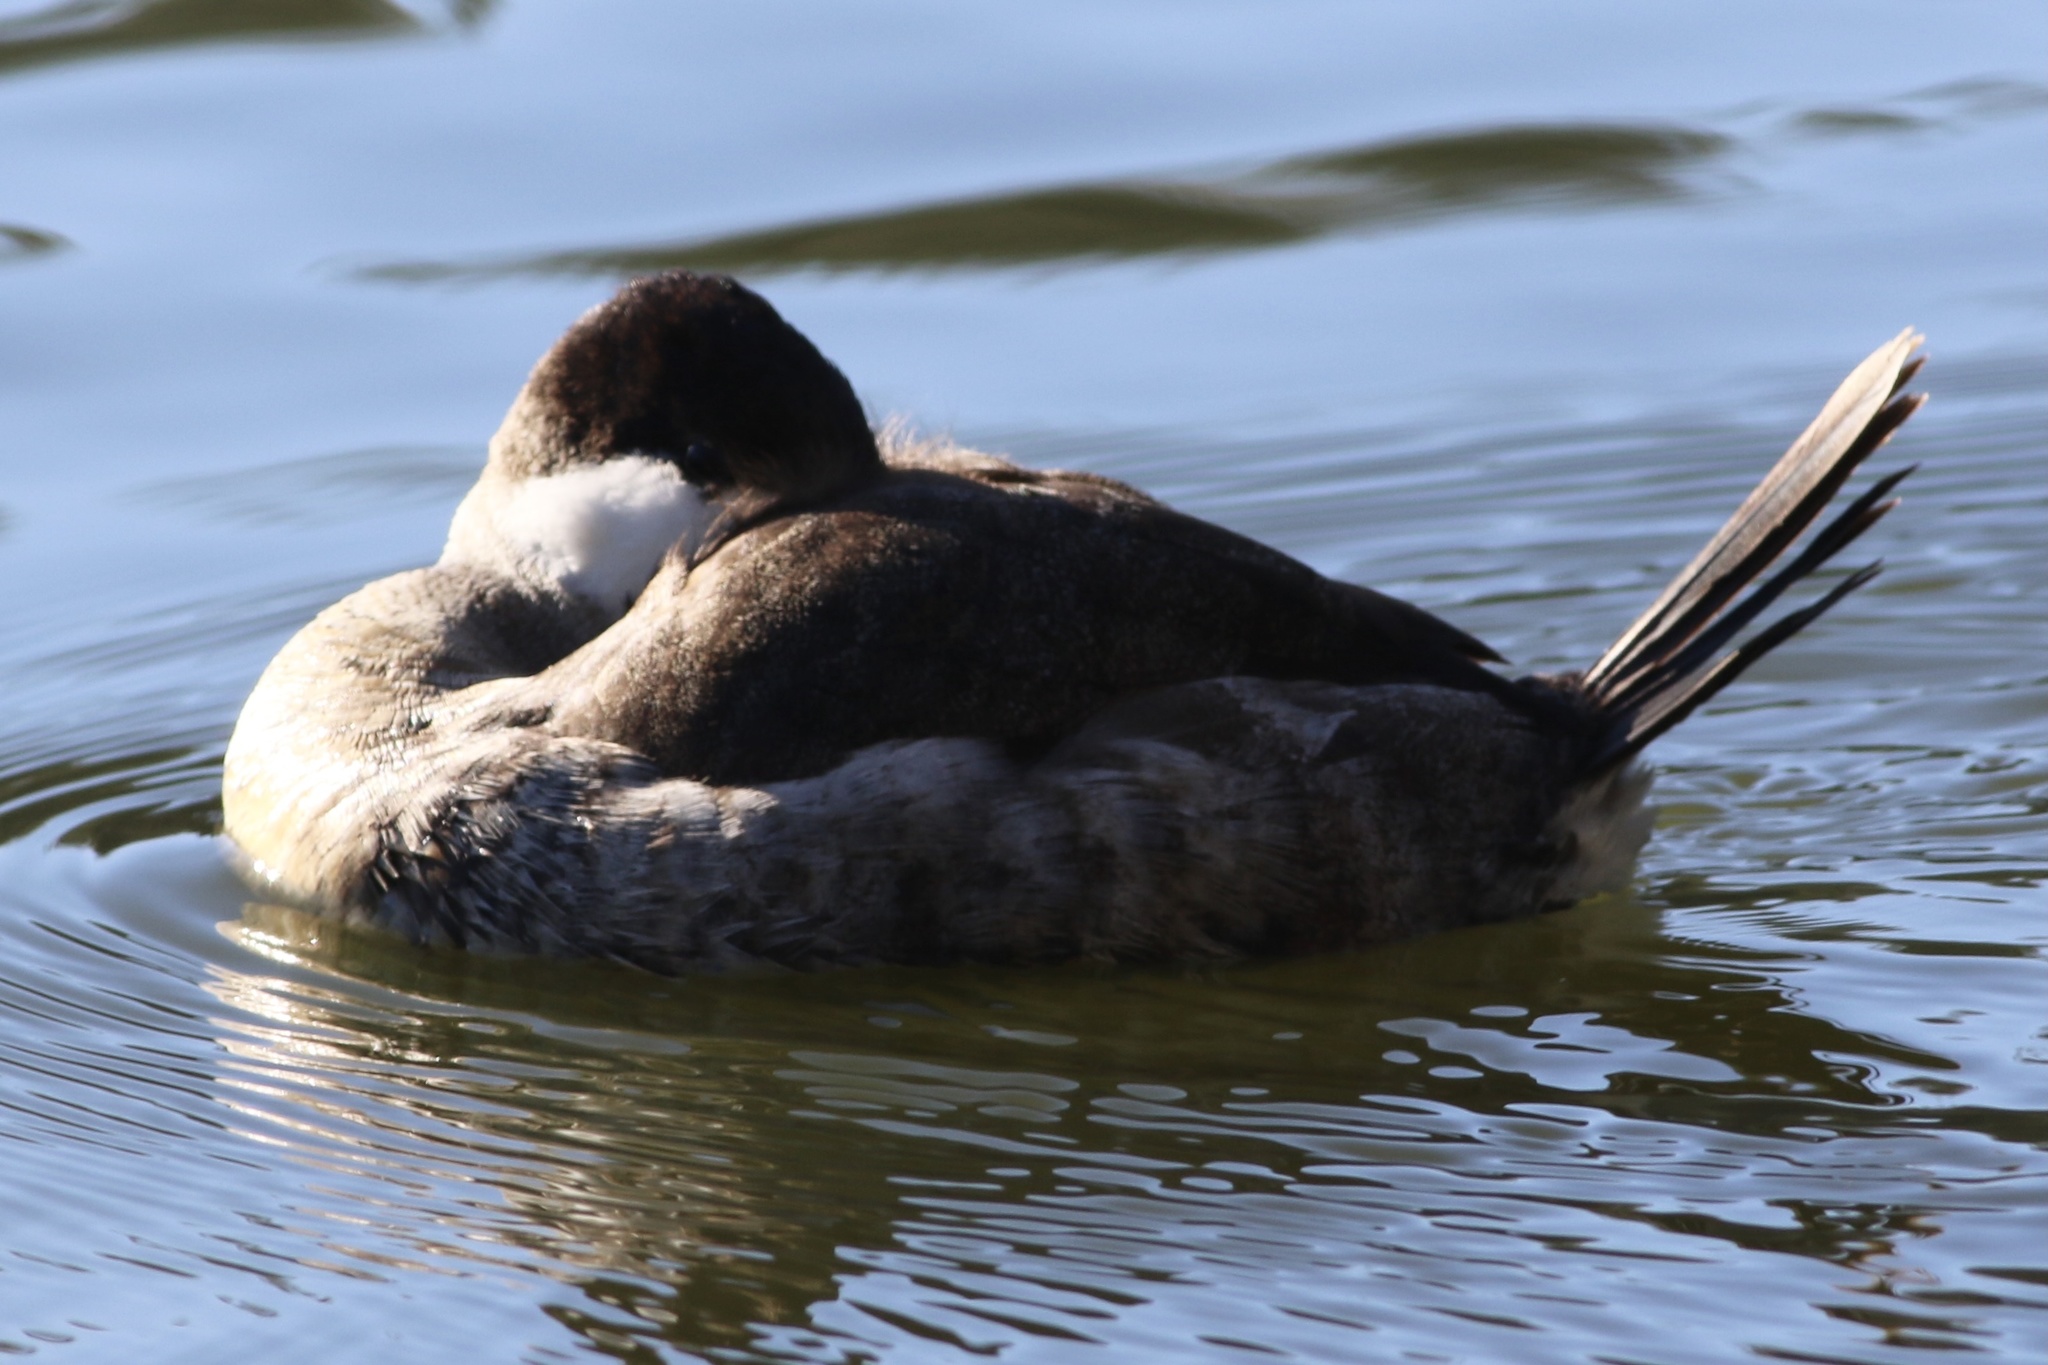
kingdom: Animalia
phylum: Chordata
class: Aves
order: Anseriformes
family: Anatidae
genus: Oxyura
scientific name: Oxyura jamaicensis
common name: Ruddy duck
